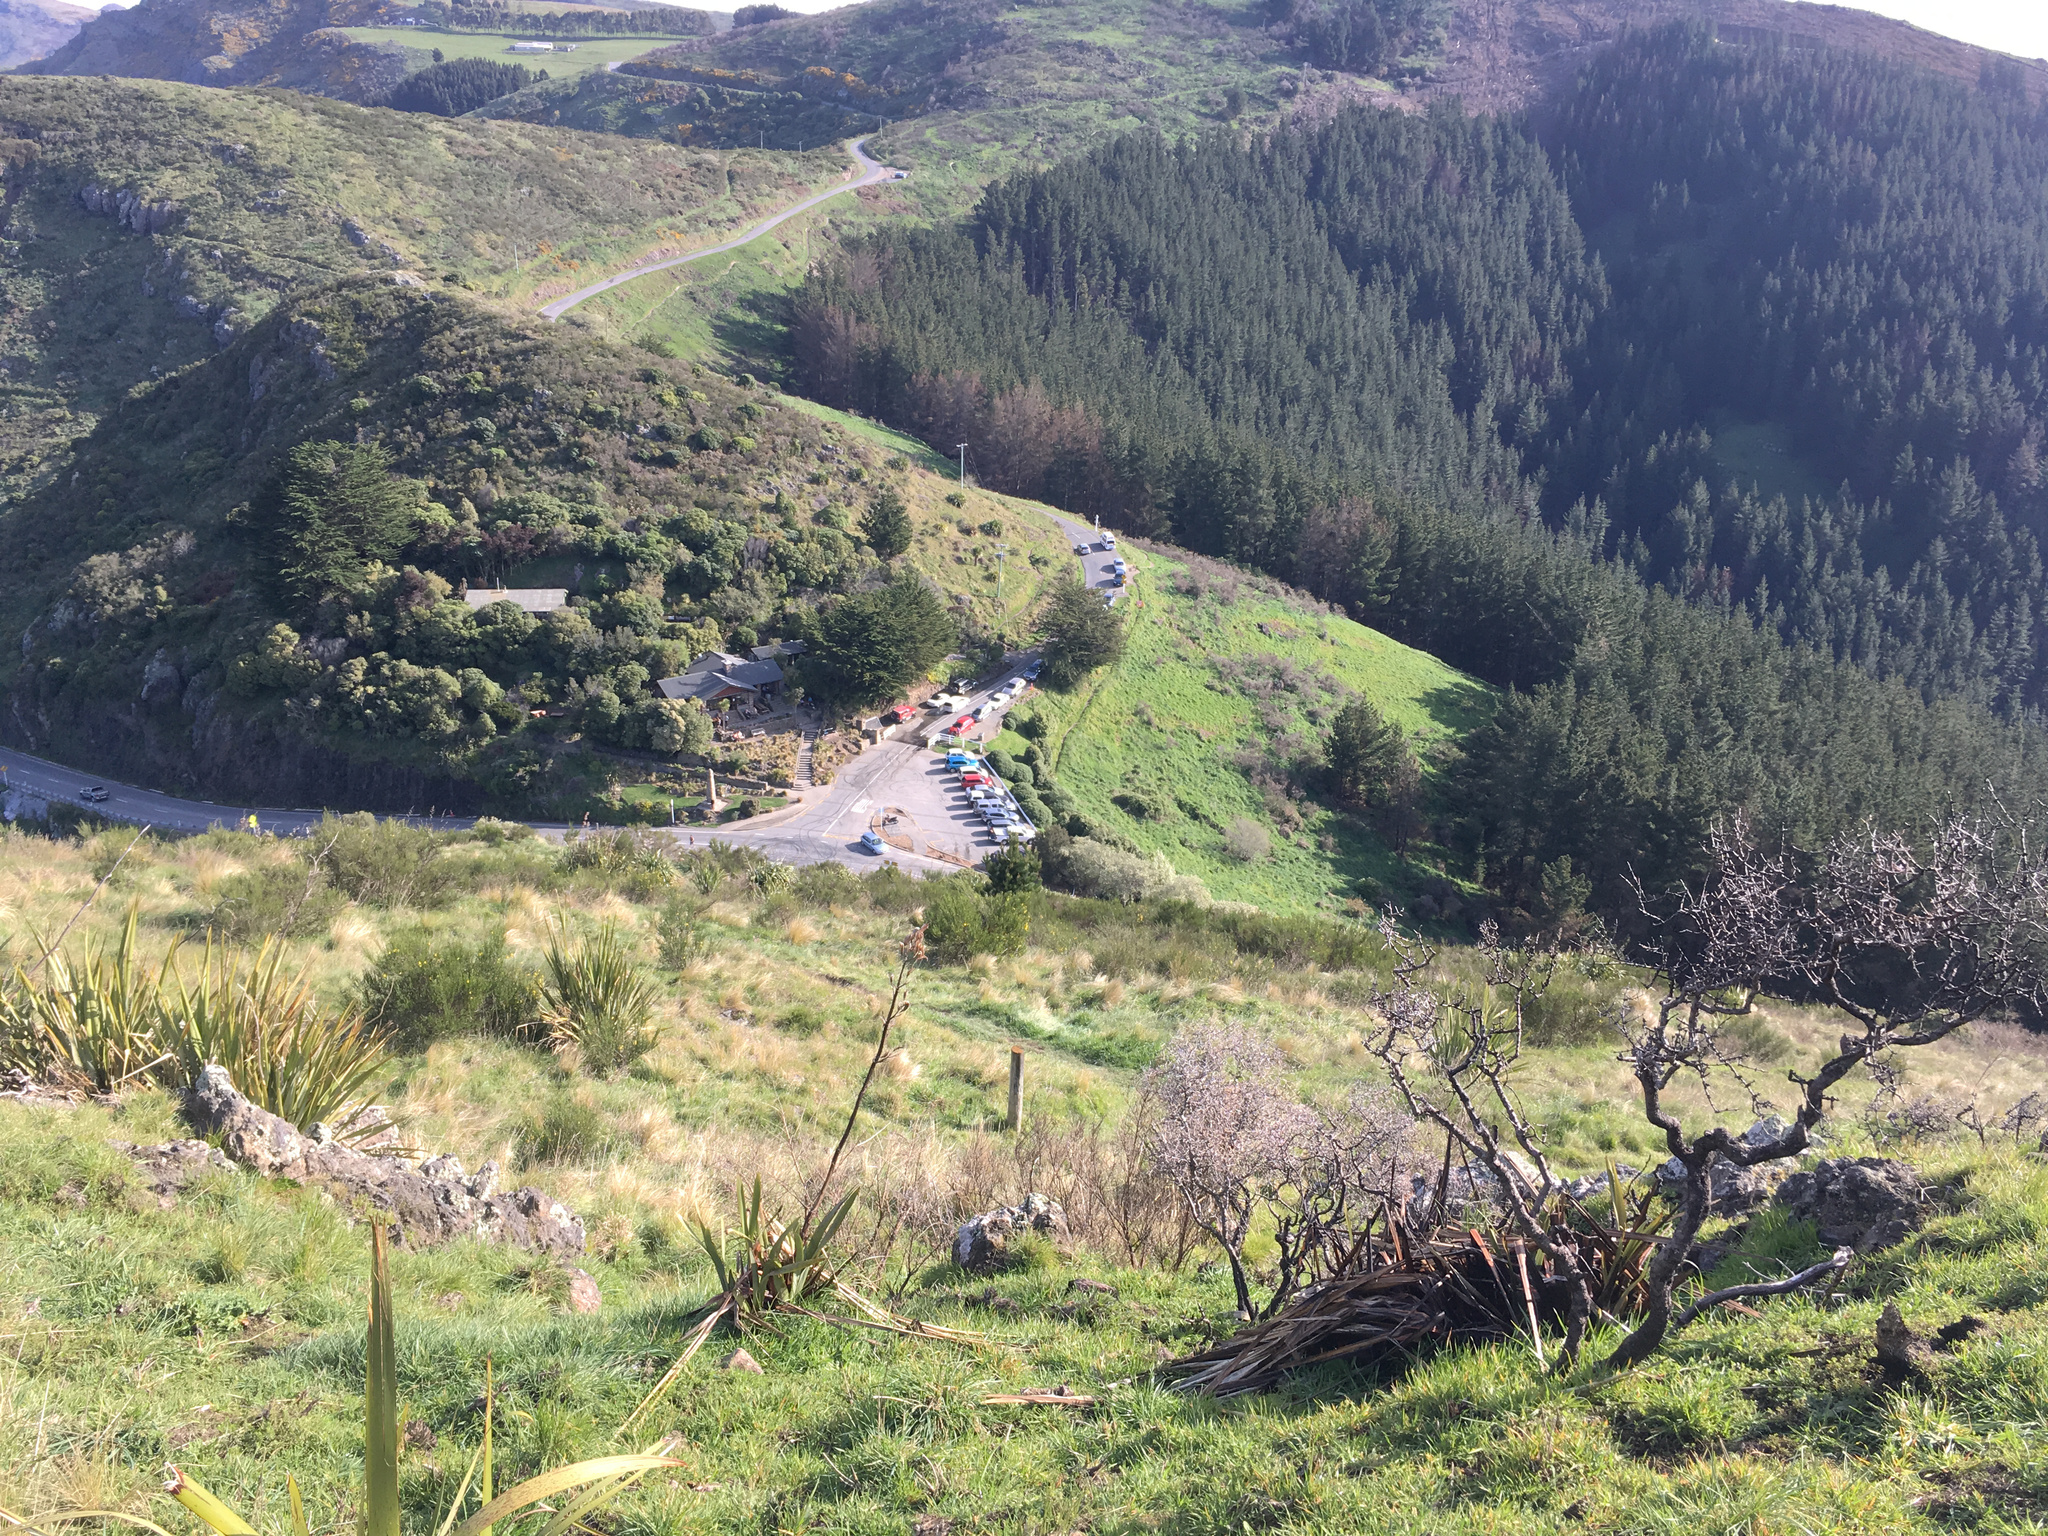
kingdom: Plantae
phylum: Tracheophyta
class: Liliopsida
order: Asparagales
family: Asphodelaceae
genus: Phormium
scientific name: Phormium tenax
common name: New zealand flax
